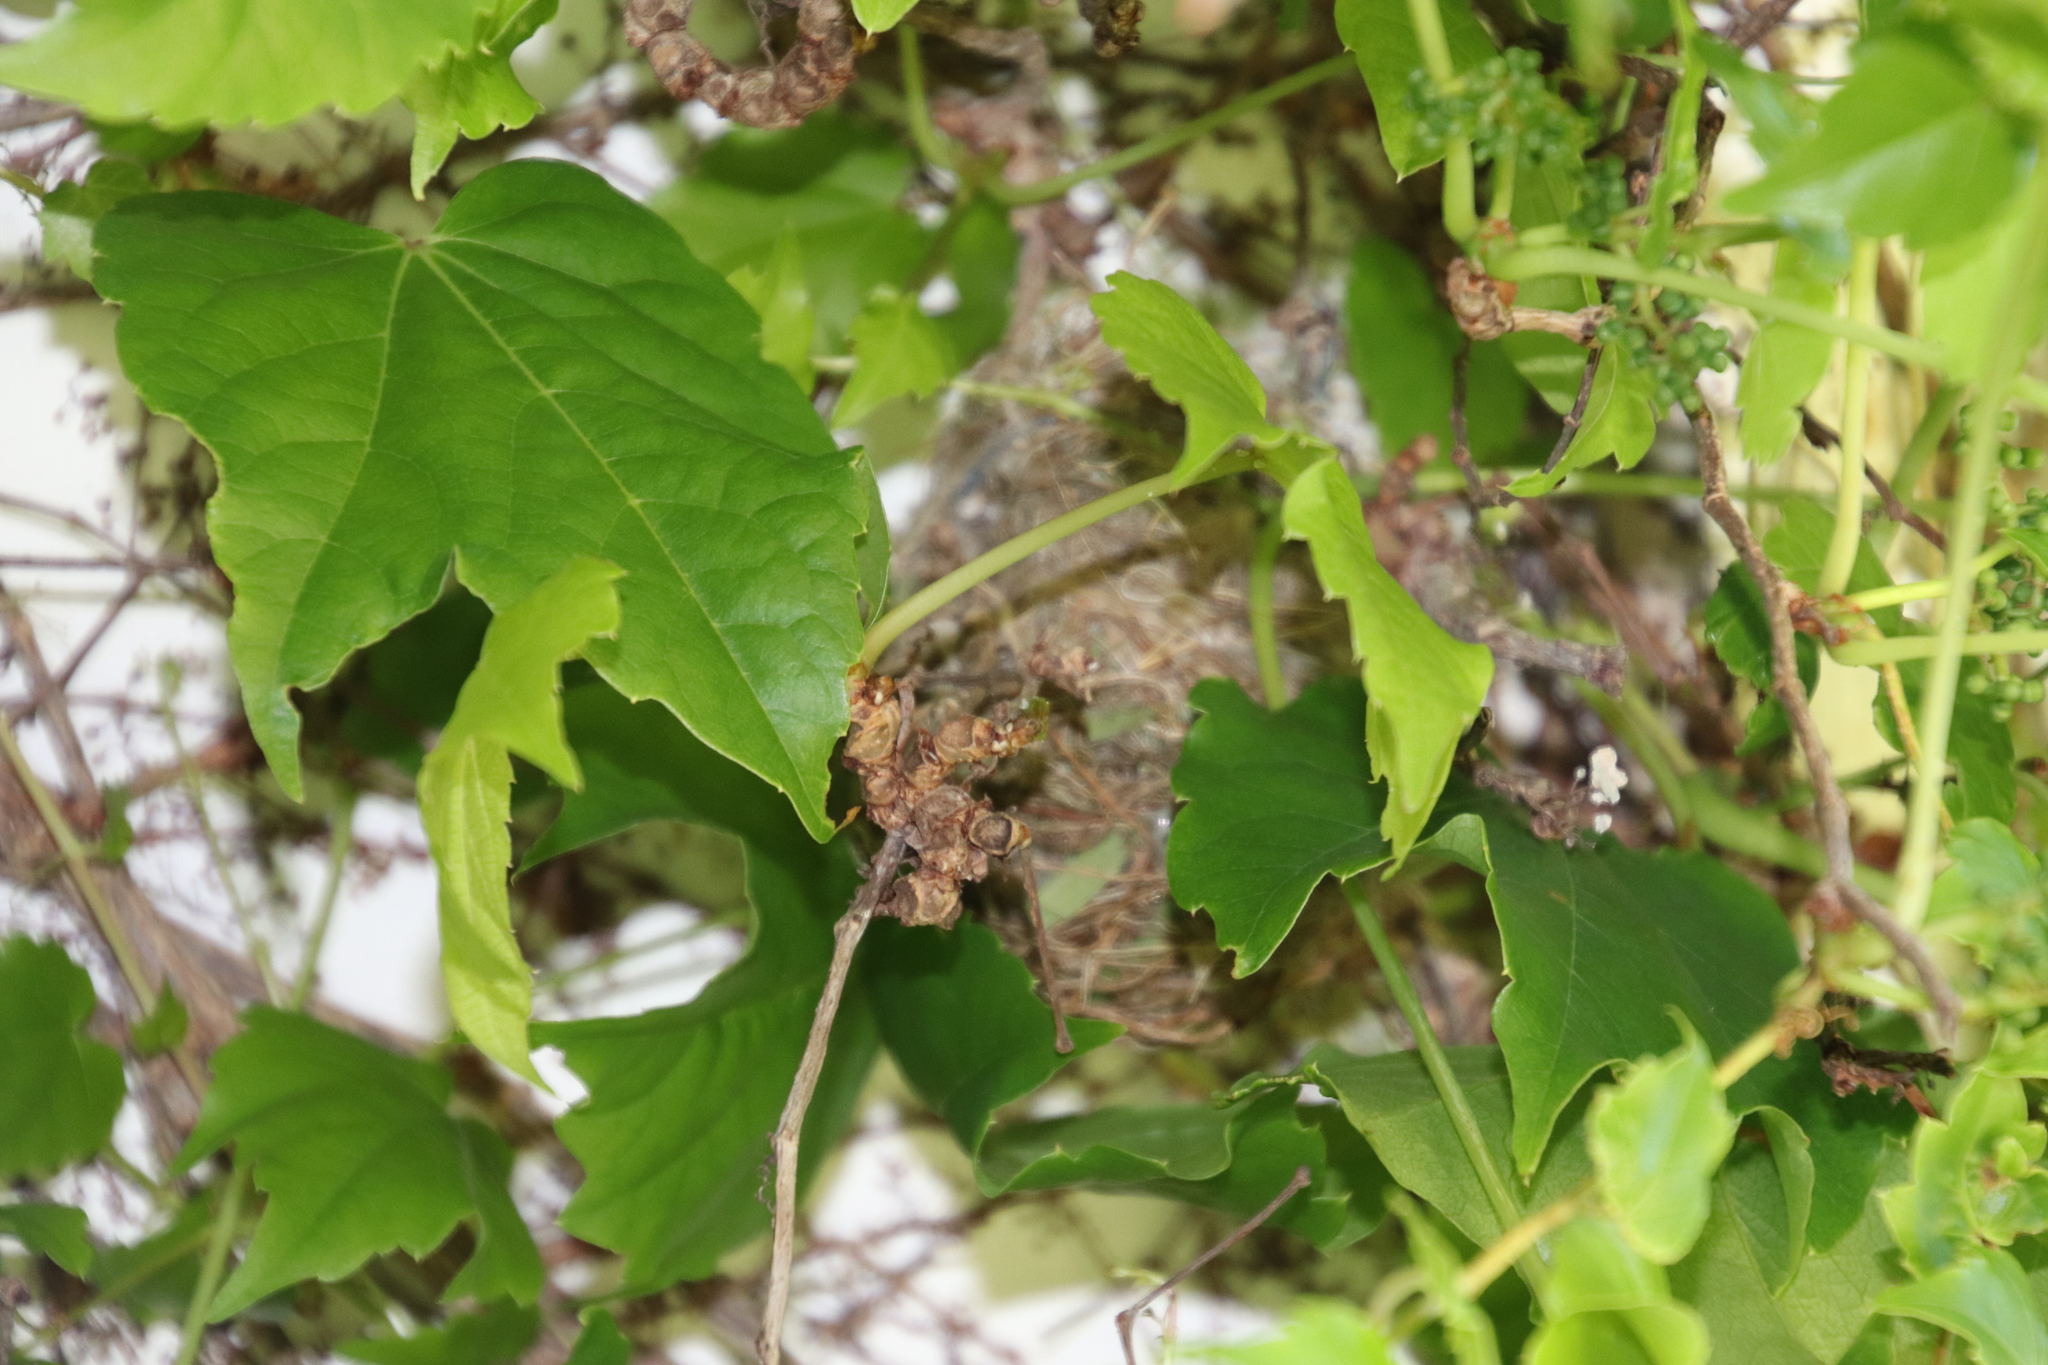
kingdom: Animalia
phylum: Chordata
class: Aves
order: Passeriformes
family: Zosteropidae
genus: Zosterops
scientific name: Zosterops virens
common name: Cape white-eye
